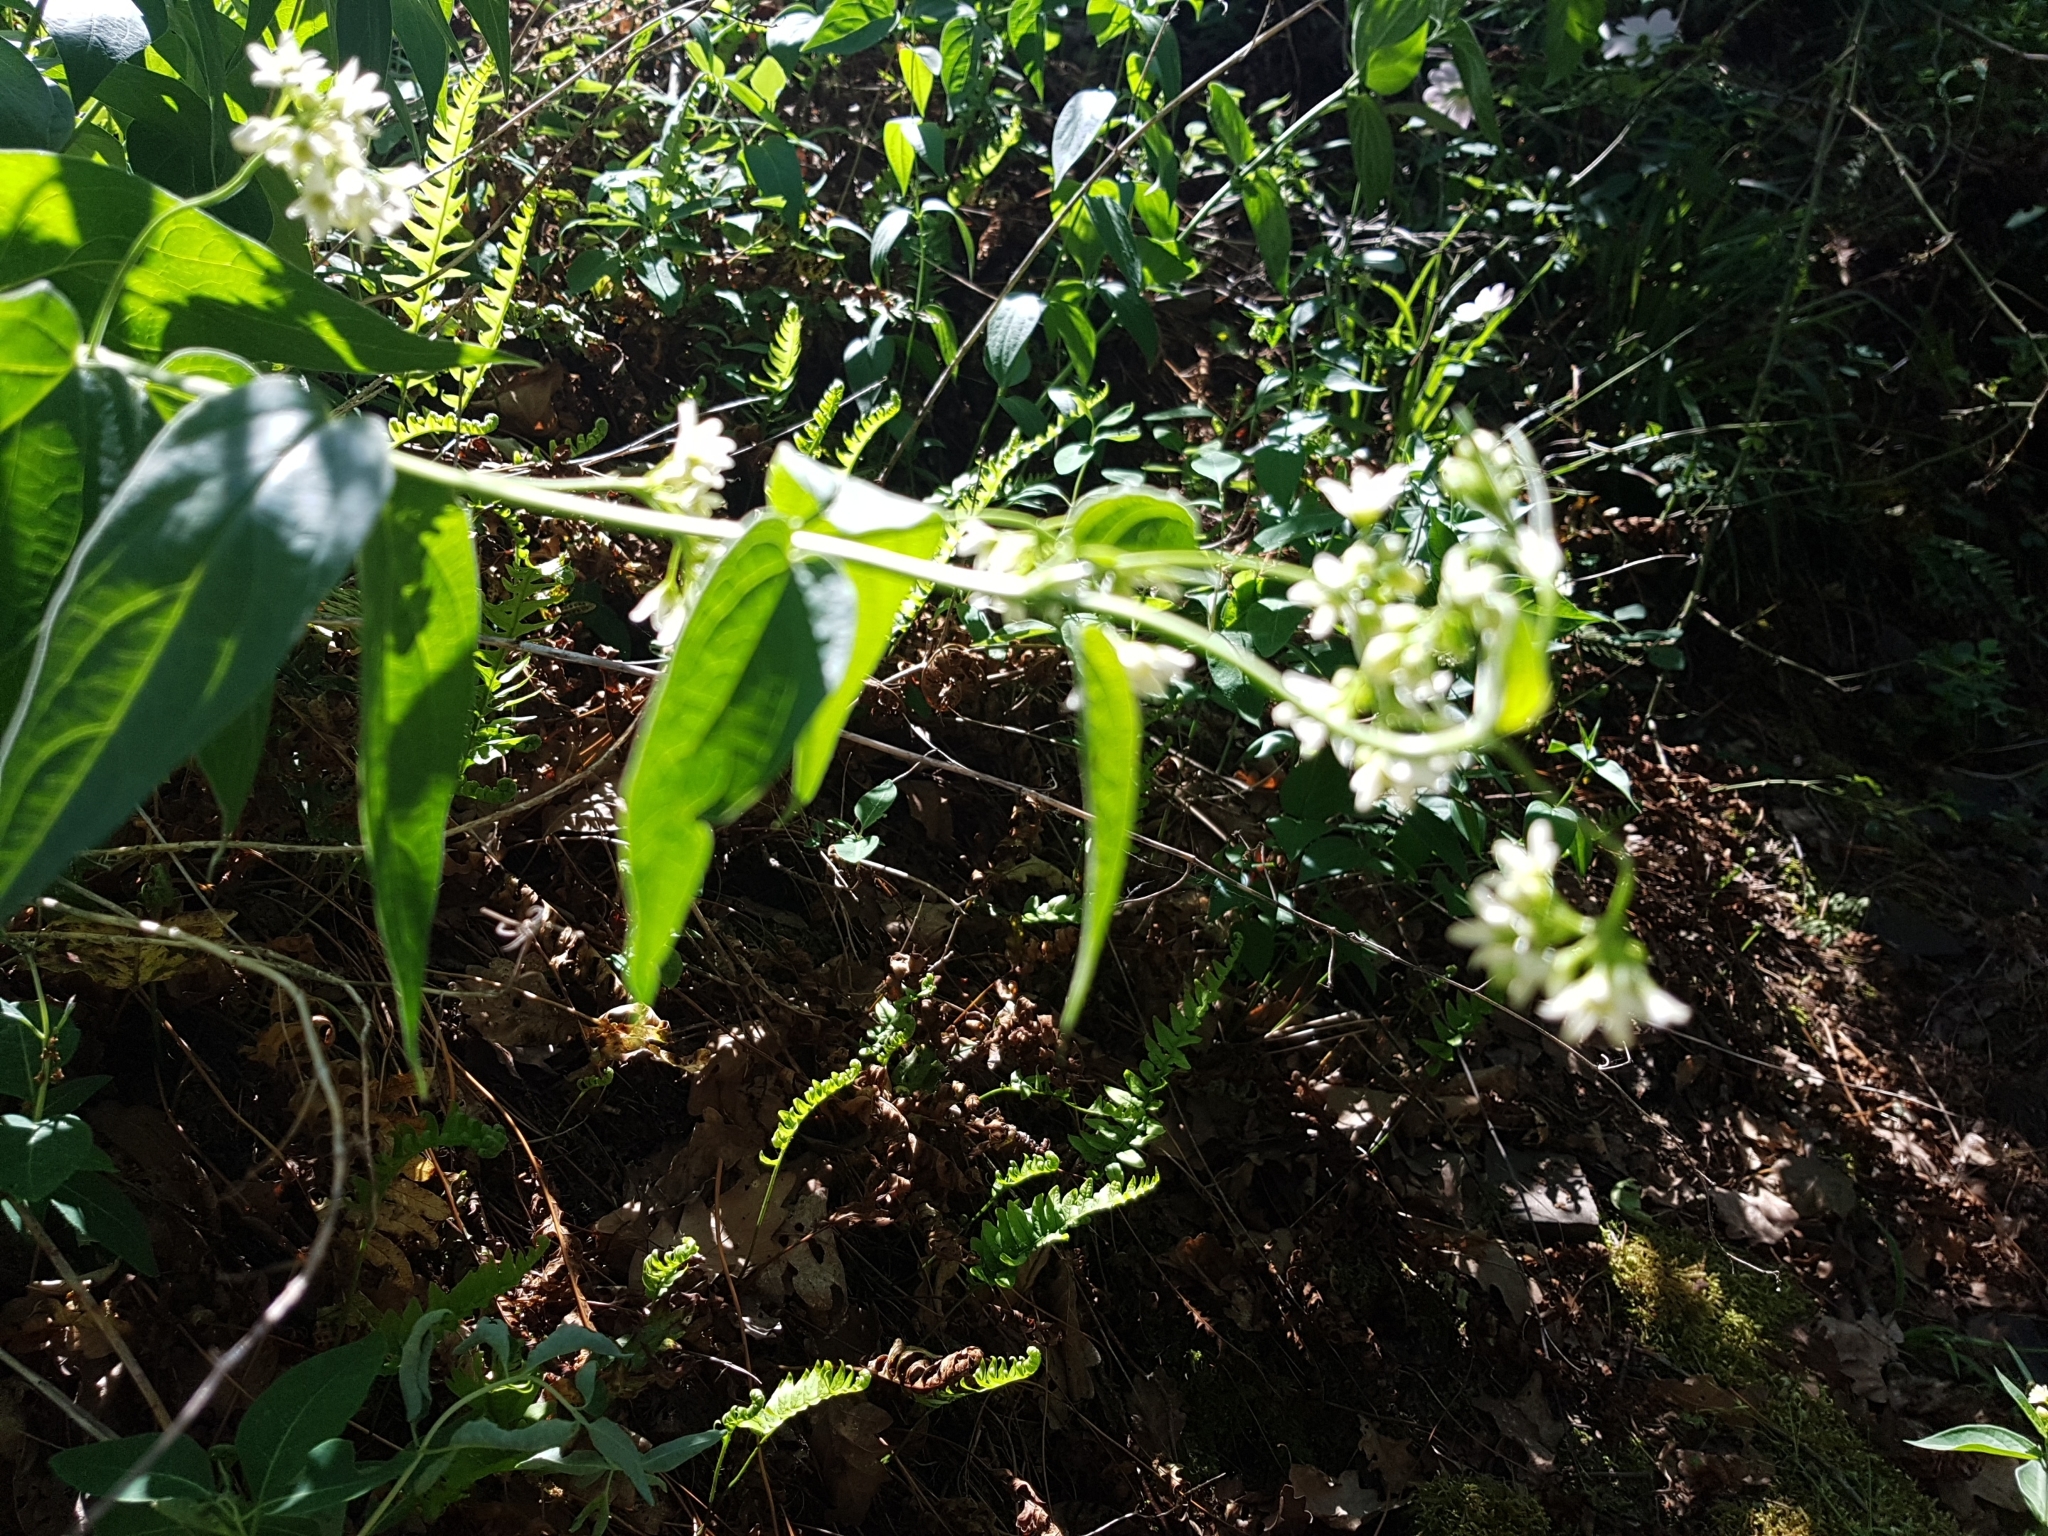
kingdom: Plantae
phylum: Tracheophyta
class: Magnoliopsida
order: Gentianales
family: Apocynaceae
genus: Vincetoxicum
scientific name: Vincetoxicum hirundinaria
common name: White swallowwort
